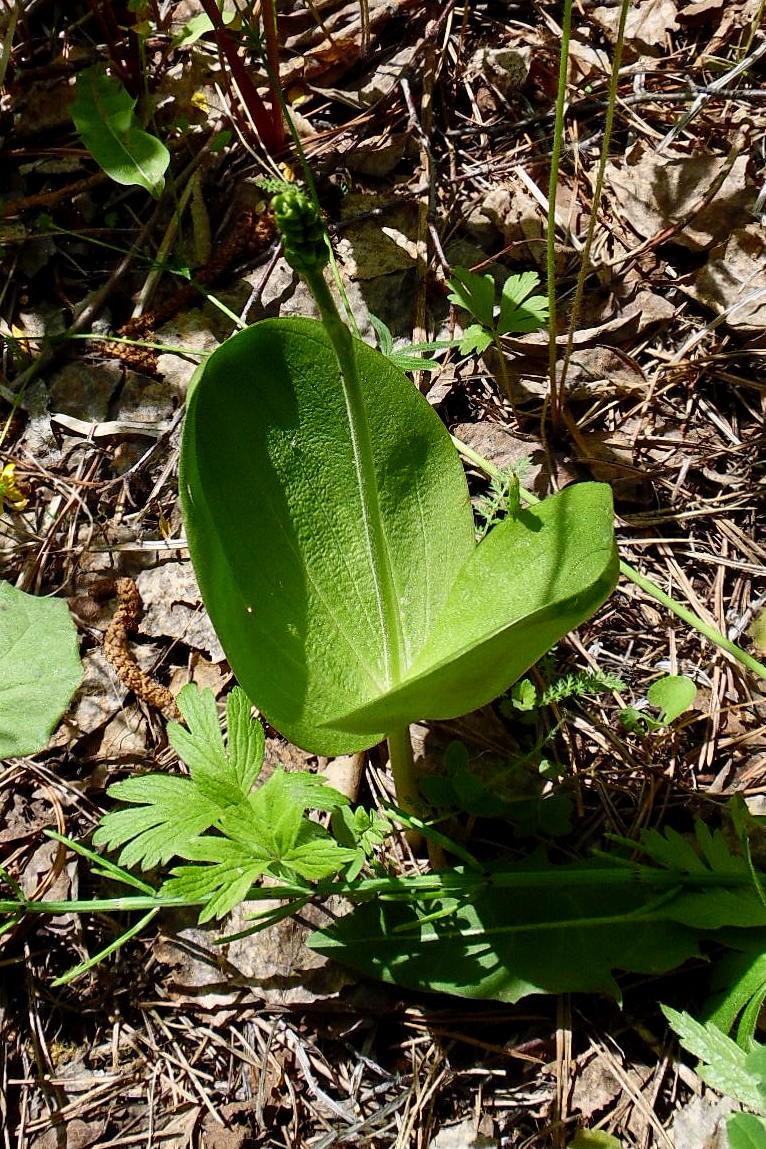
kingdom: Plantae
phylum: Tracheophyta
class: Liliopsida
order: Asparagales
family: Orchidaceae
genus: Neottia
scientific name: Neottia ovata
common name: Common twayblade
